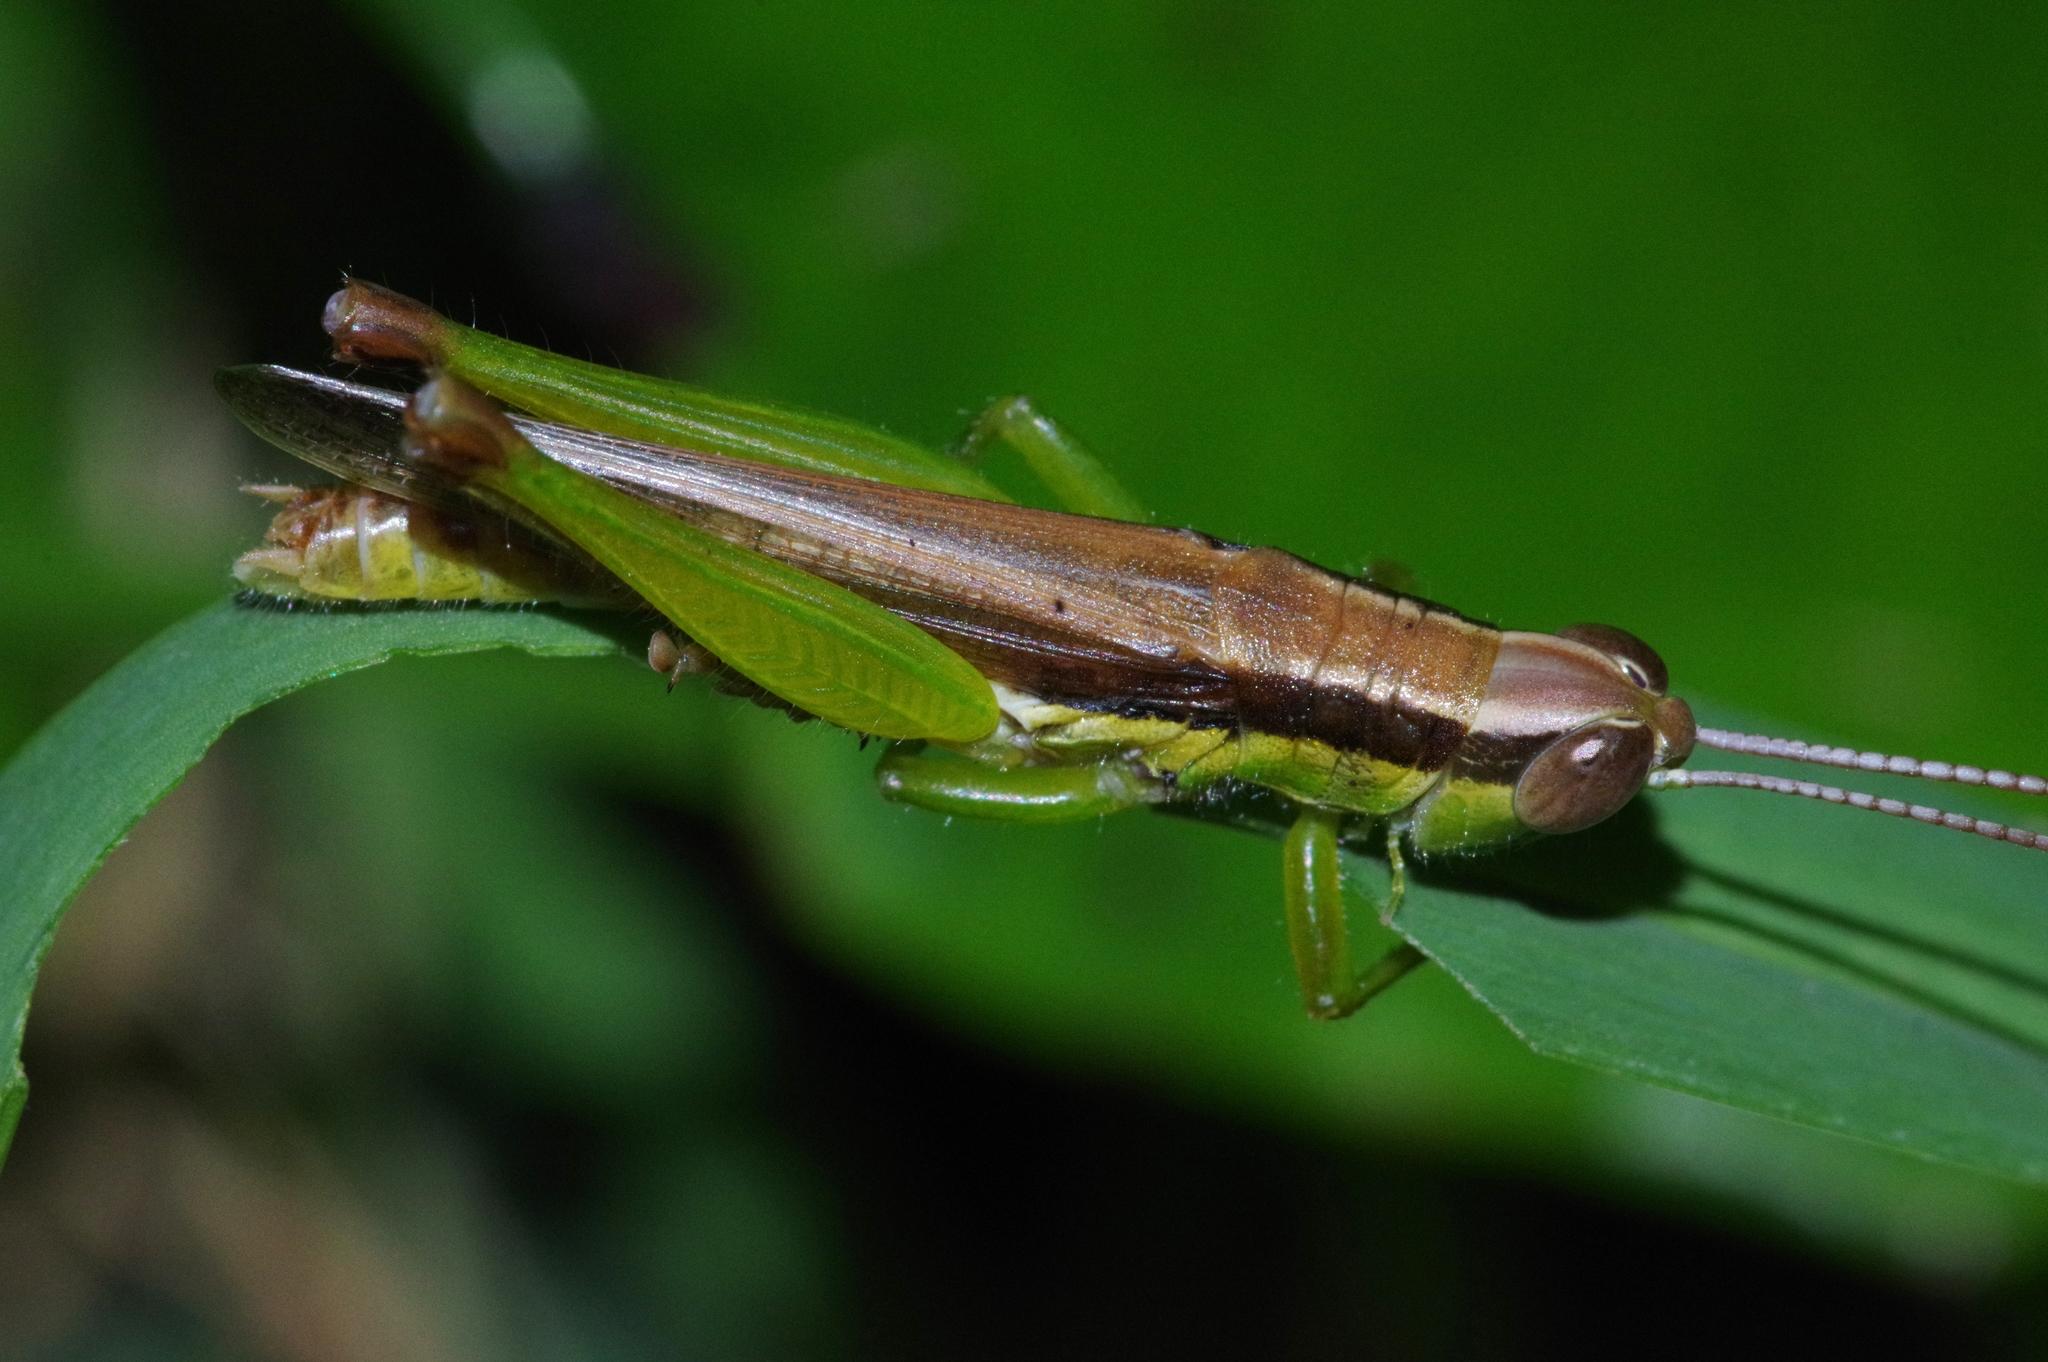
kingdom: Animalia
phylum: Arthropoda
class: Insecta
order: Orthoptera
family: Acrididae
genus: Oxya
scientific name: Oxya intricata
